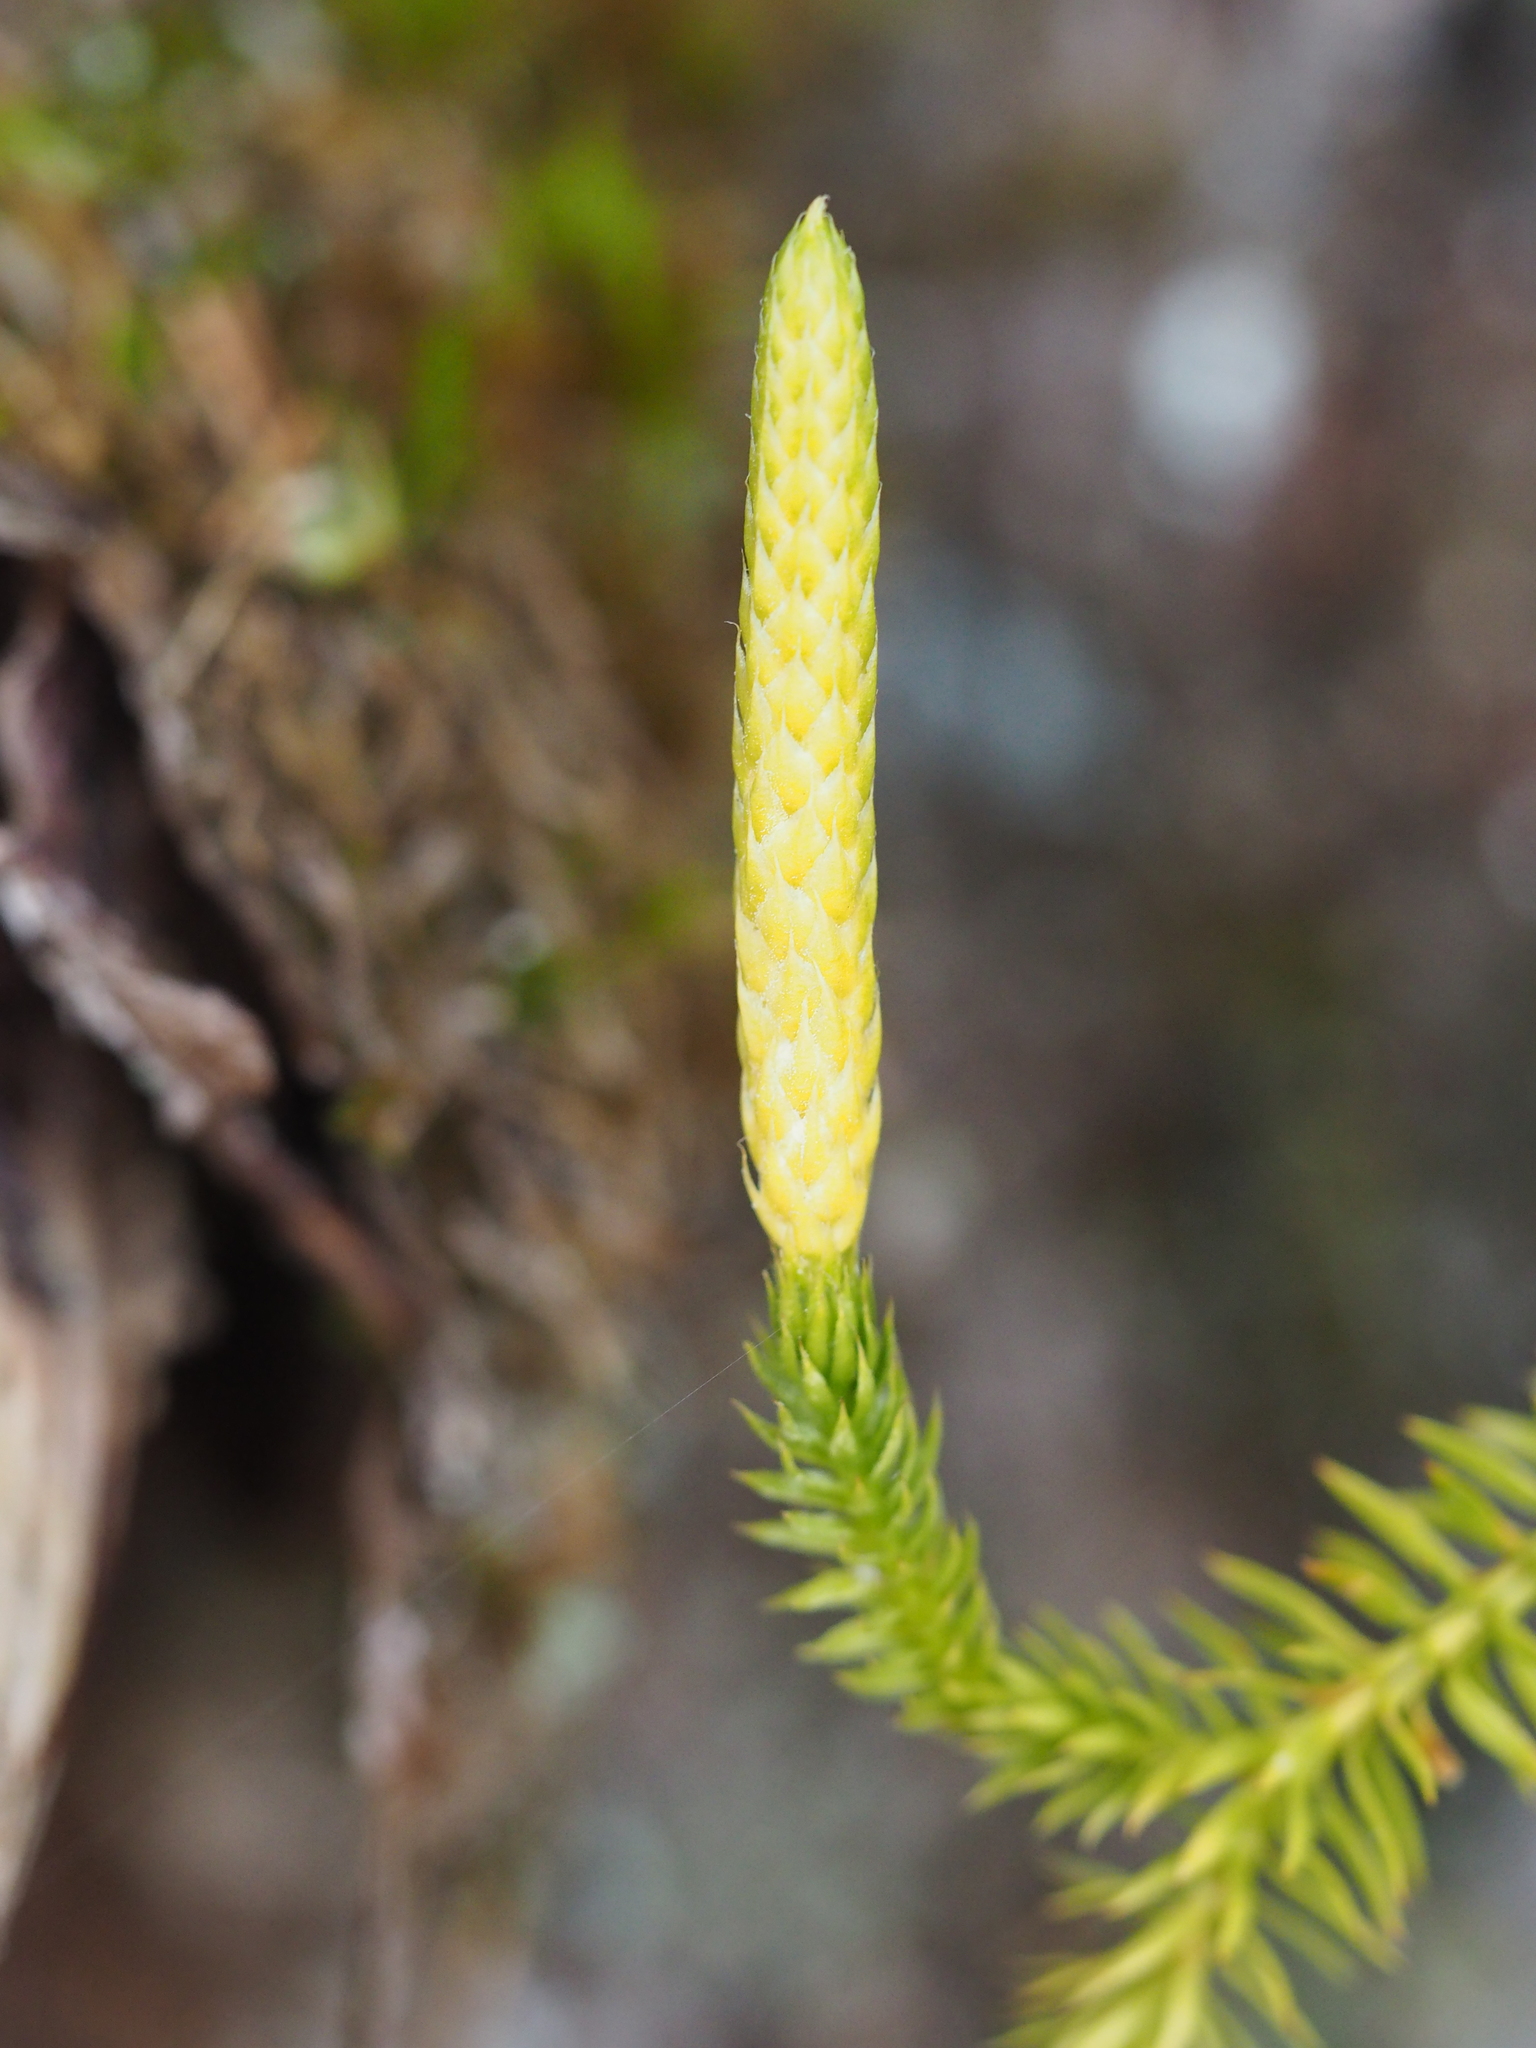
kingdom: Plantae
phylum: Tracheophyta
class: Lycopodiopsida
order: Lycopodiales
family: Lycopodiaceae
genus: Spinulum
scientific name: Spinulum annotinum
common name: Interrupted club-moss
